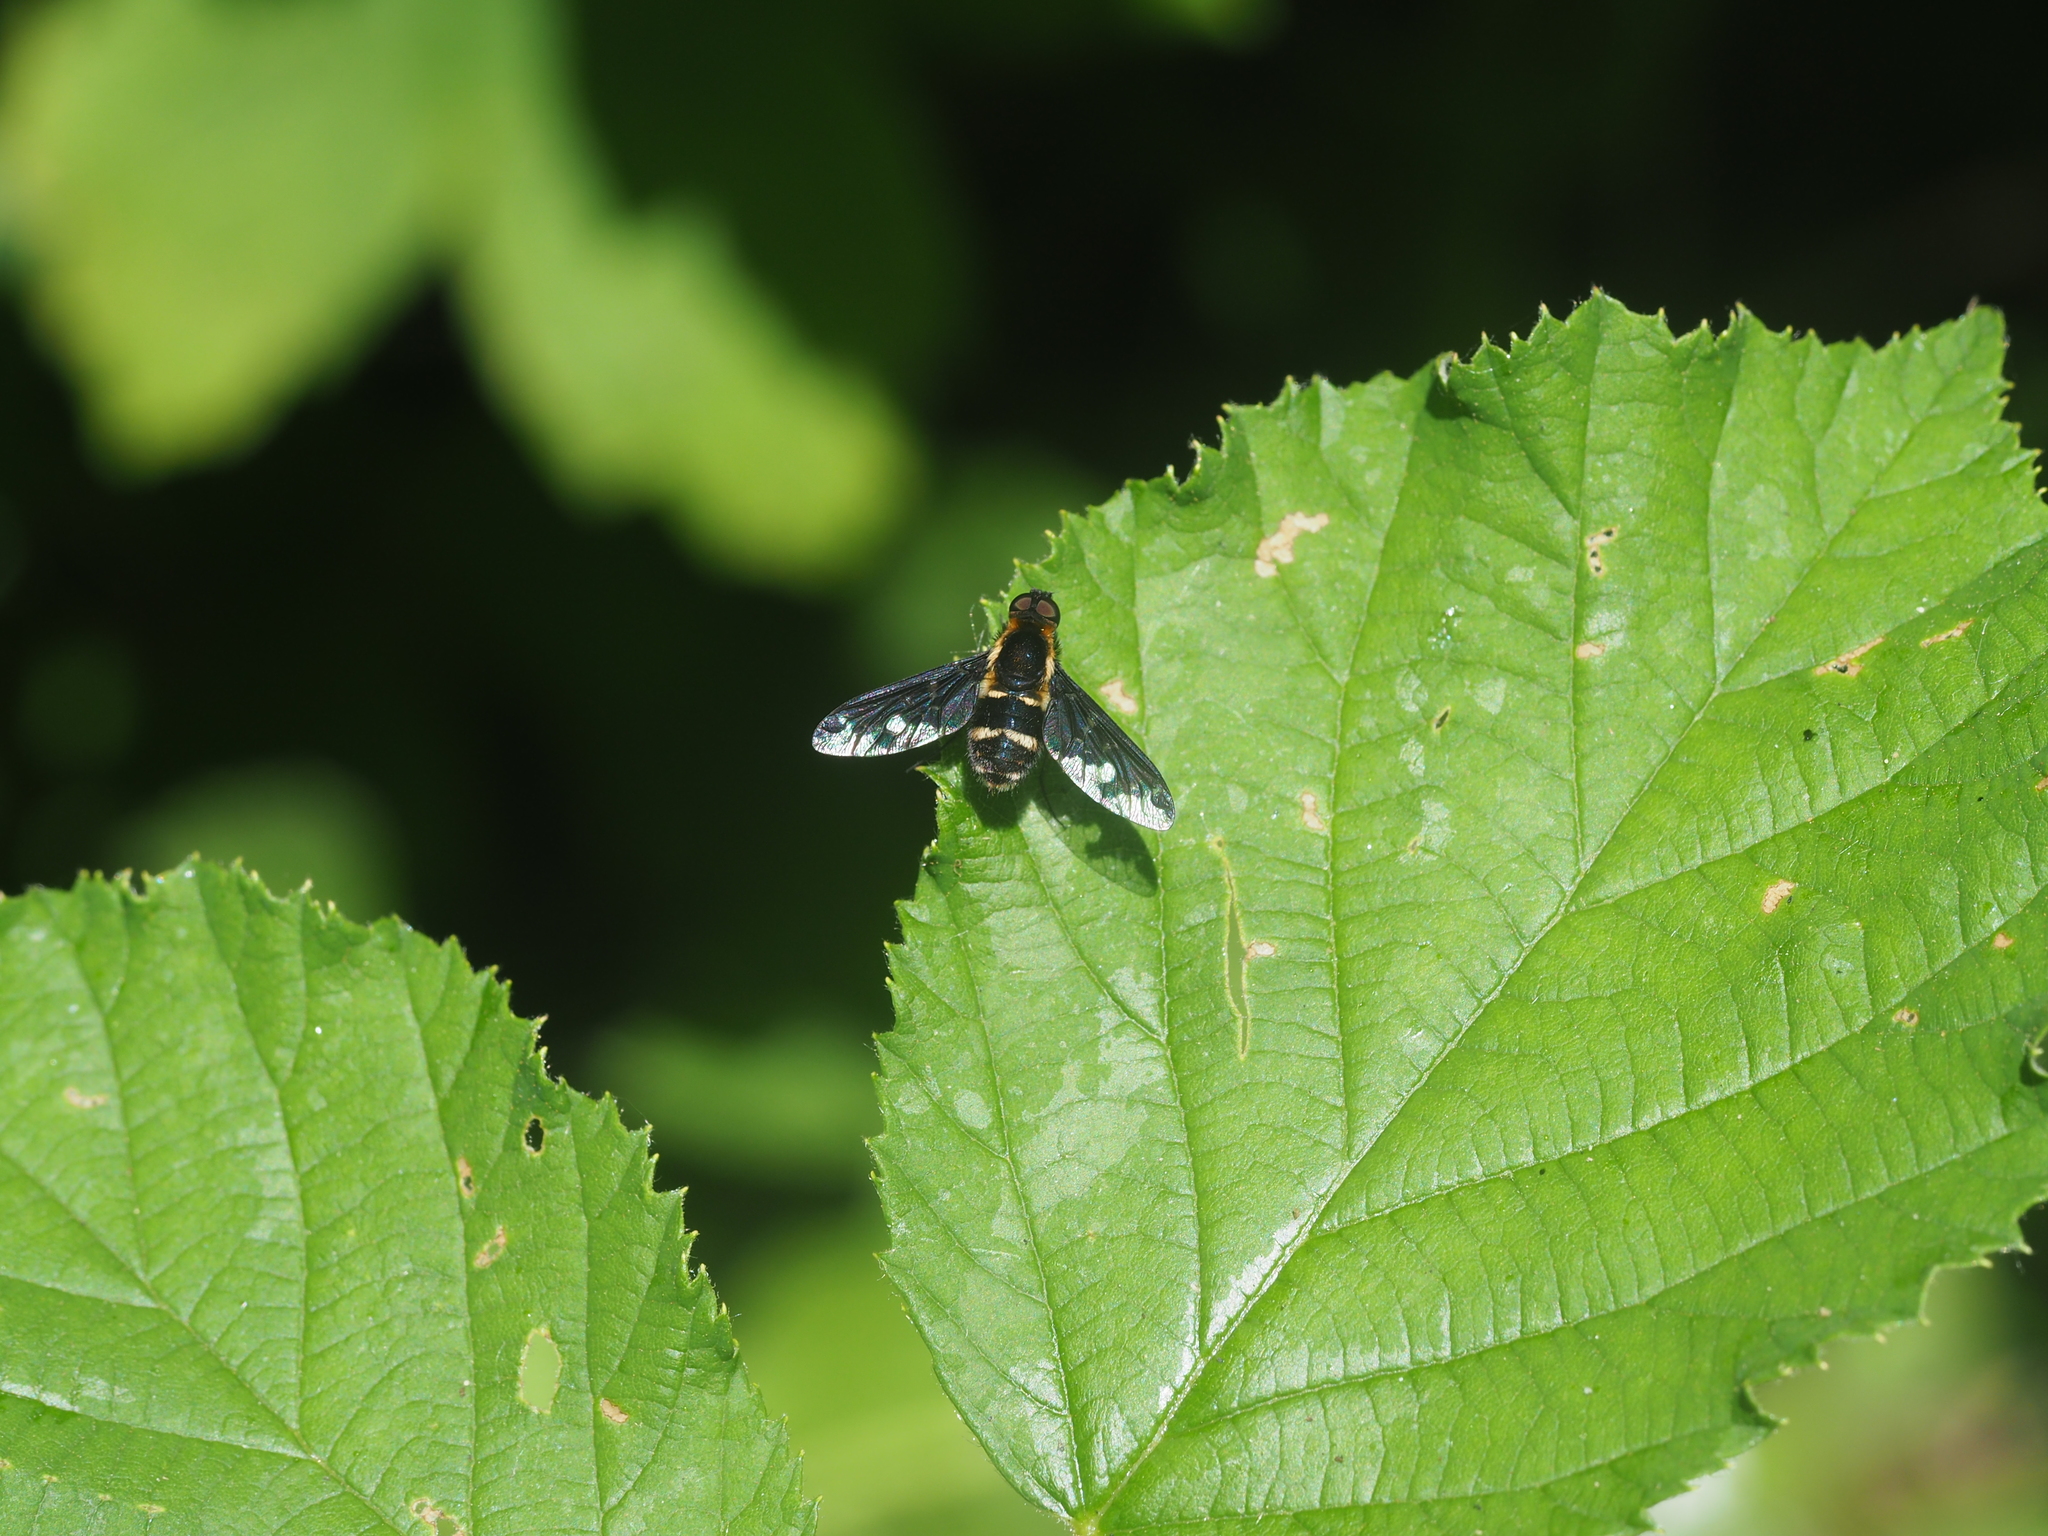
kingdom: Animalia
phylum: Arthropoda
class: Insecta
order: Diptera
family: Bombyliidae
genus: Hemipenthes
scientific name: Hemipenthes maura
